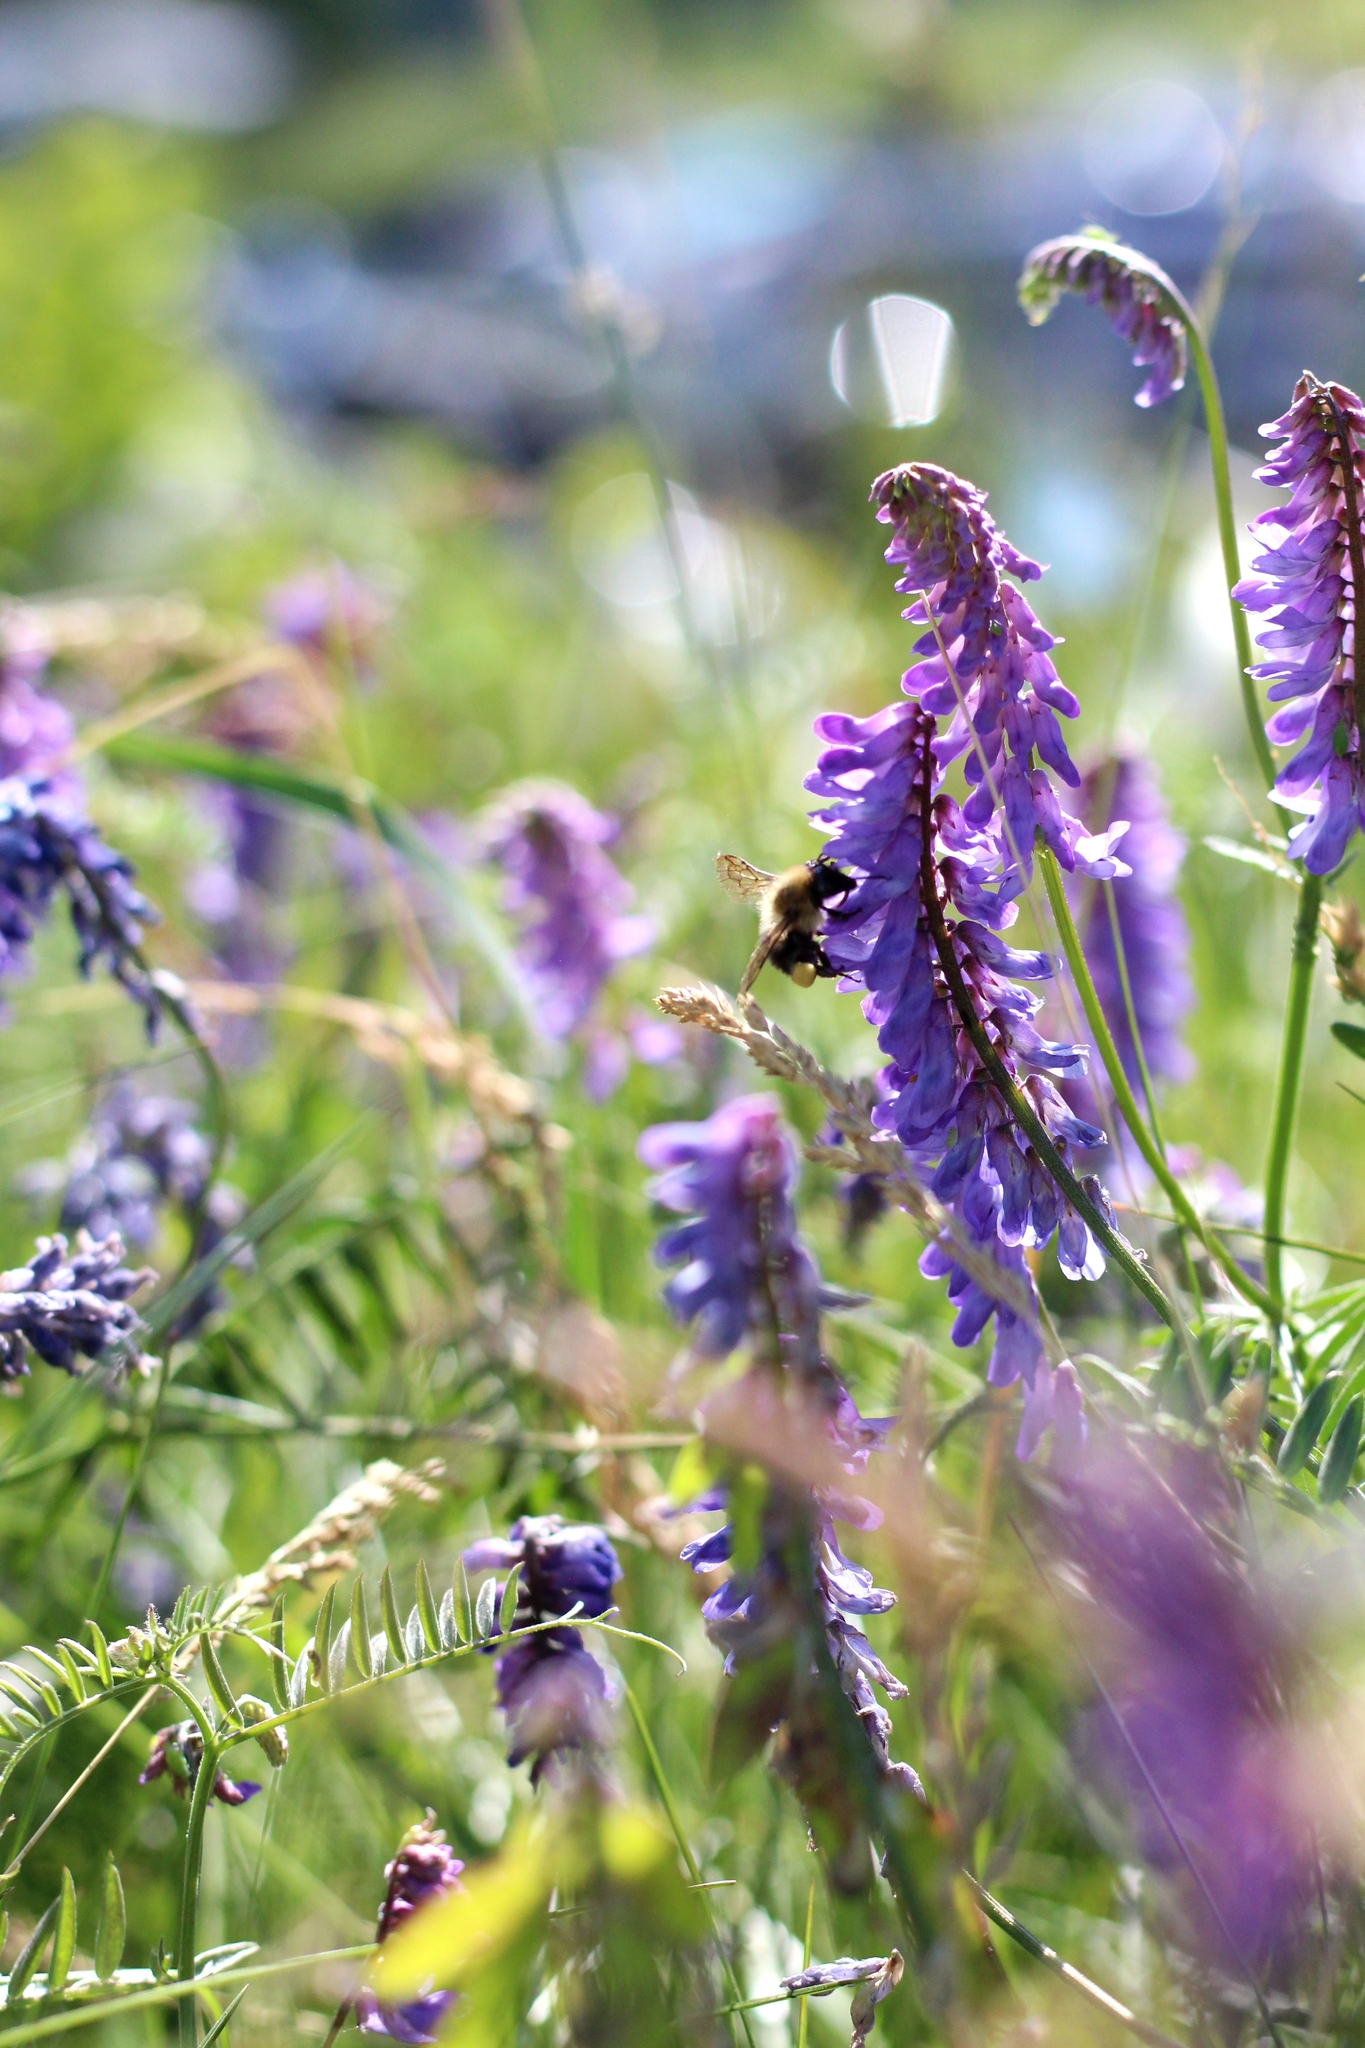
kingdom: Animalia
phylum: Arthropoda
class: Insecta
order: Hymenoptera
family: Apidae
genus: Bombus
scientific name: Bombus impatiens
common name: Common eastern bumble bee
